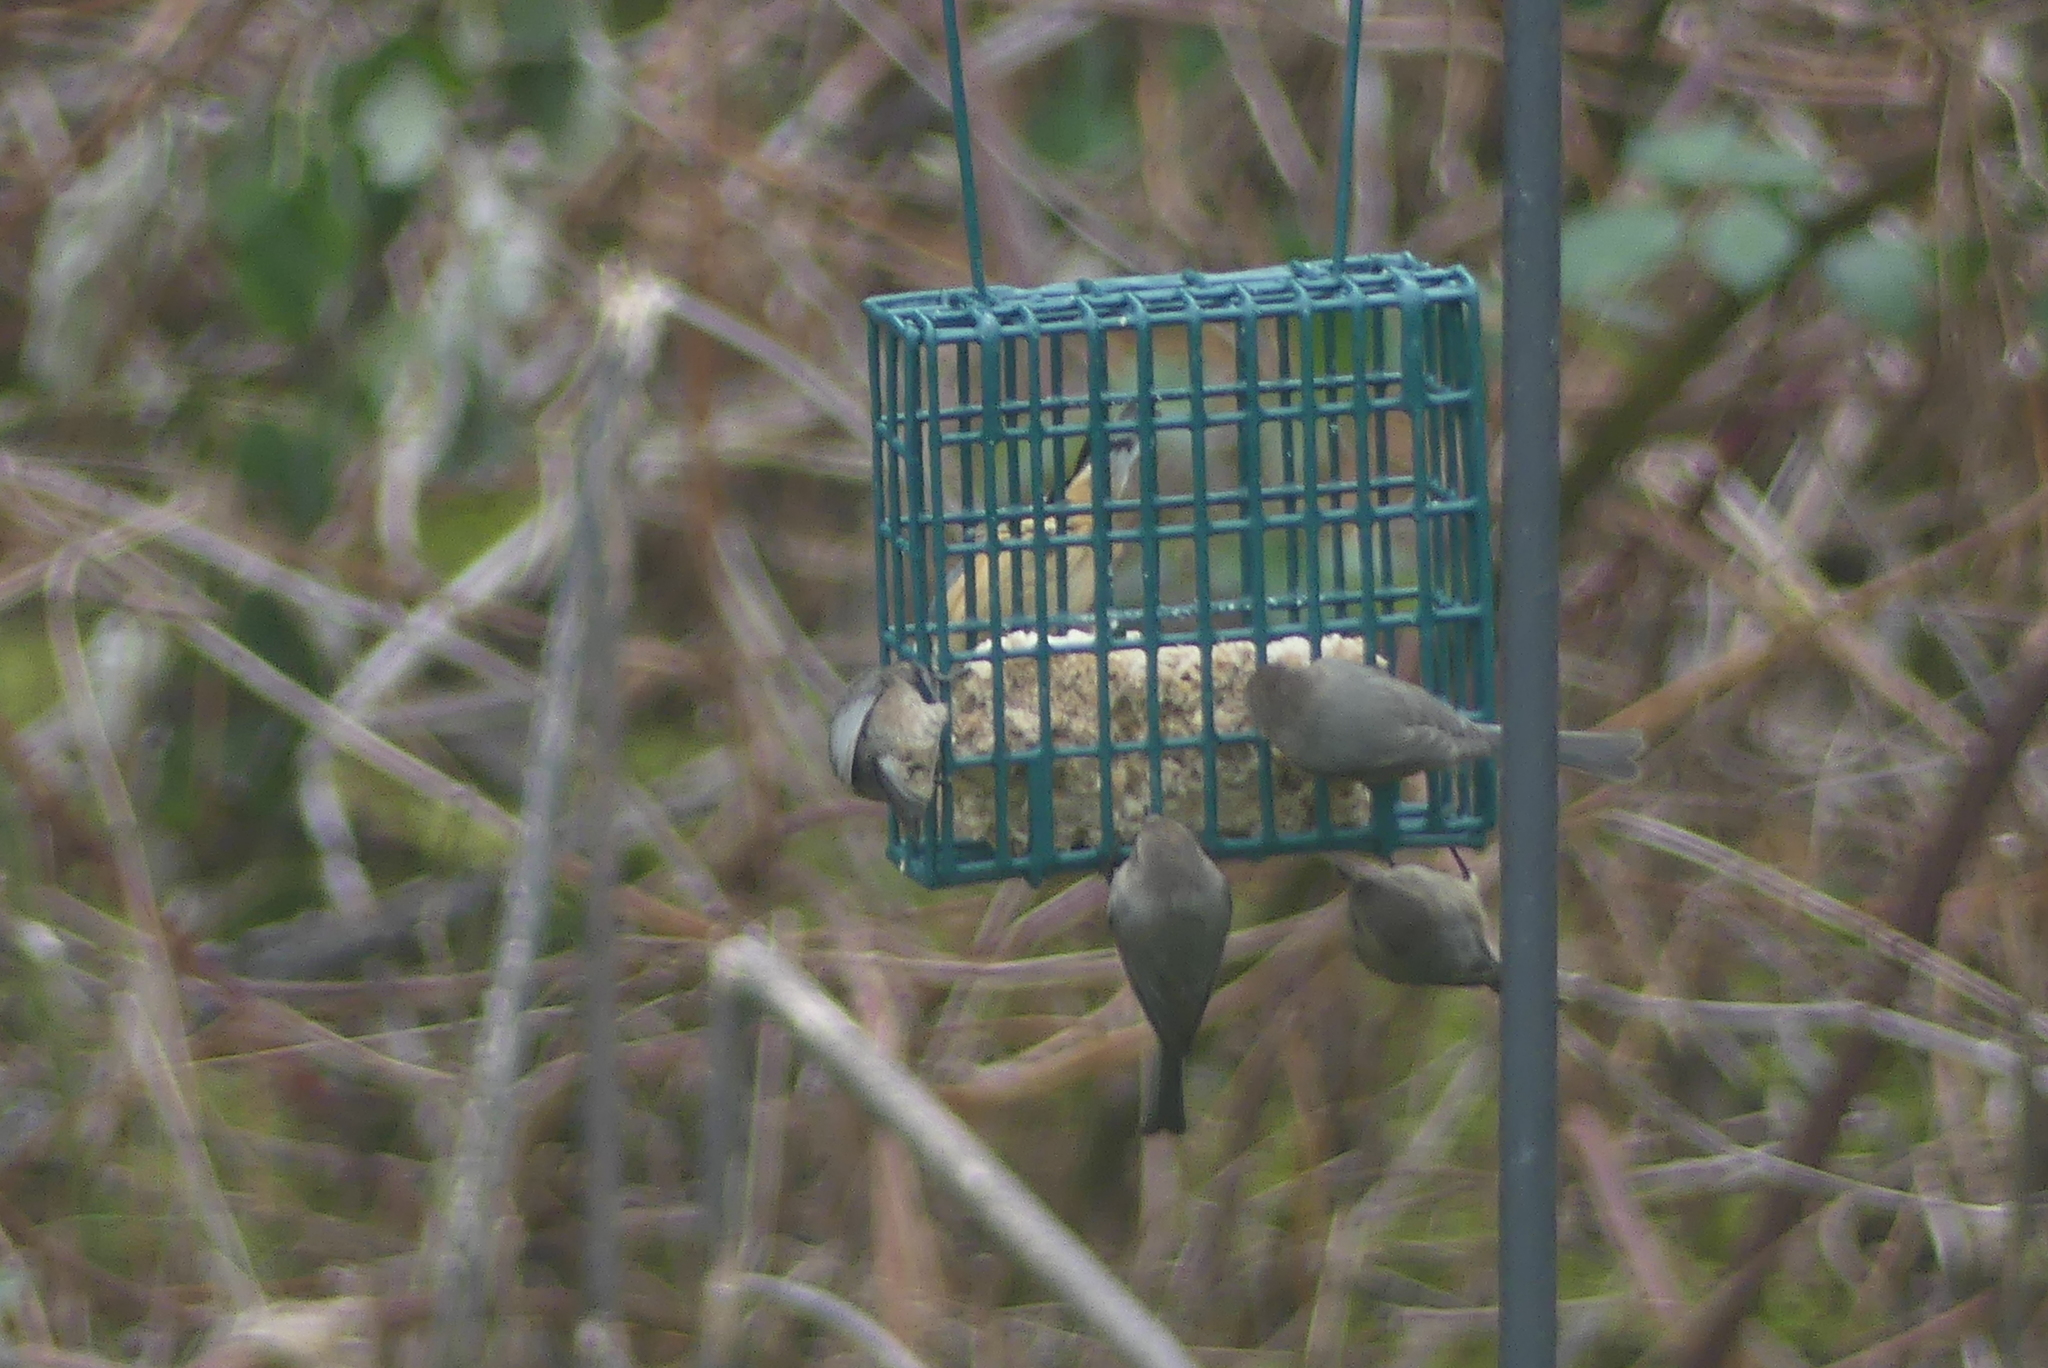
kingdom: Animalia
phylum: Chordata
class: Aves
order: Passeriformes
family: Aegithalidae
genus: Psaltriparus
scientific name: Psaltriparus minimus
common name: American bushtit
